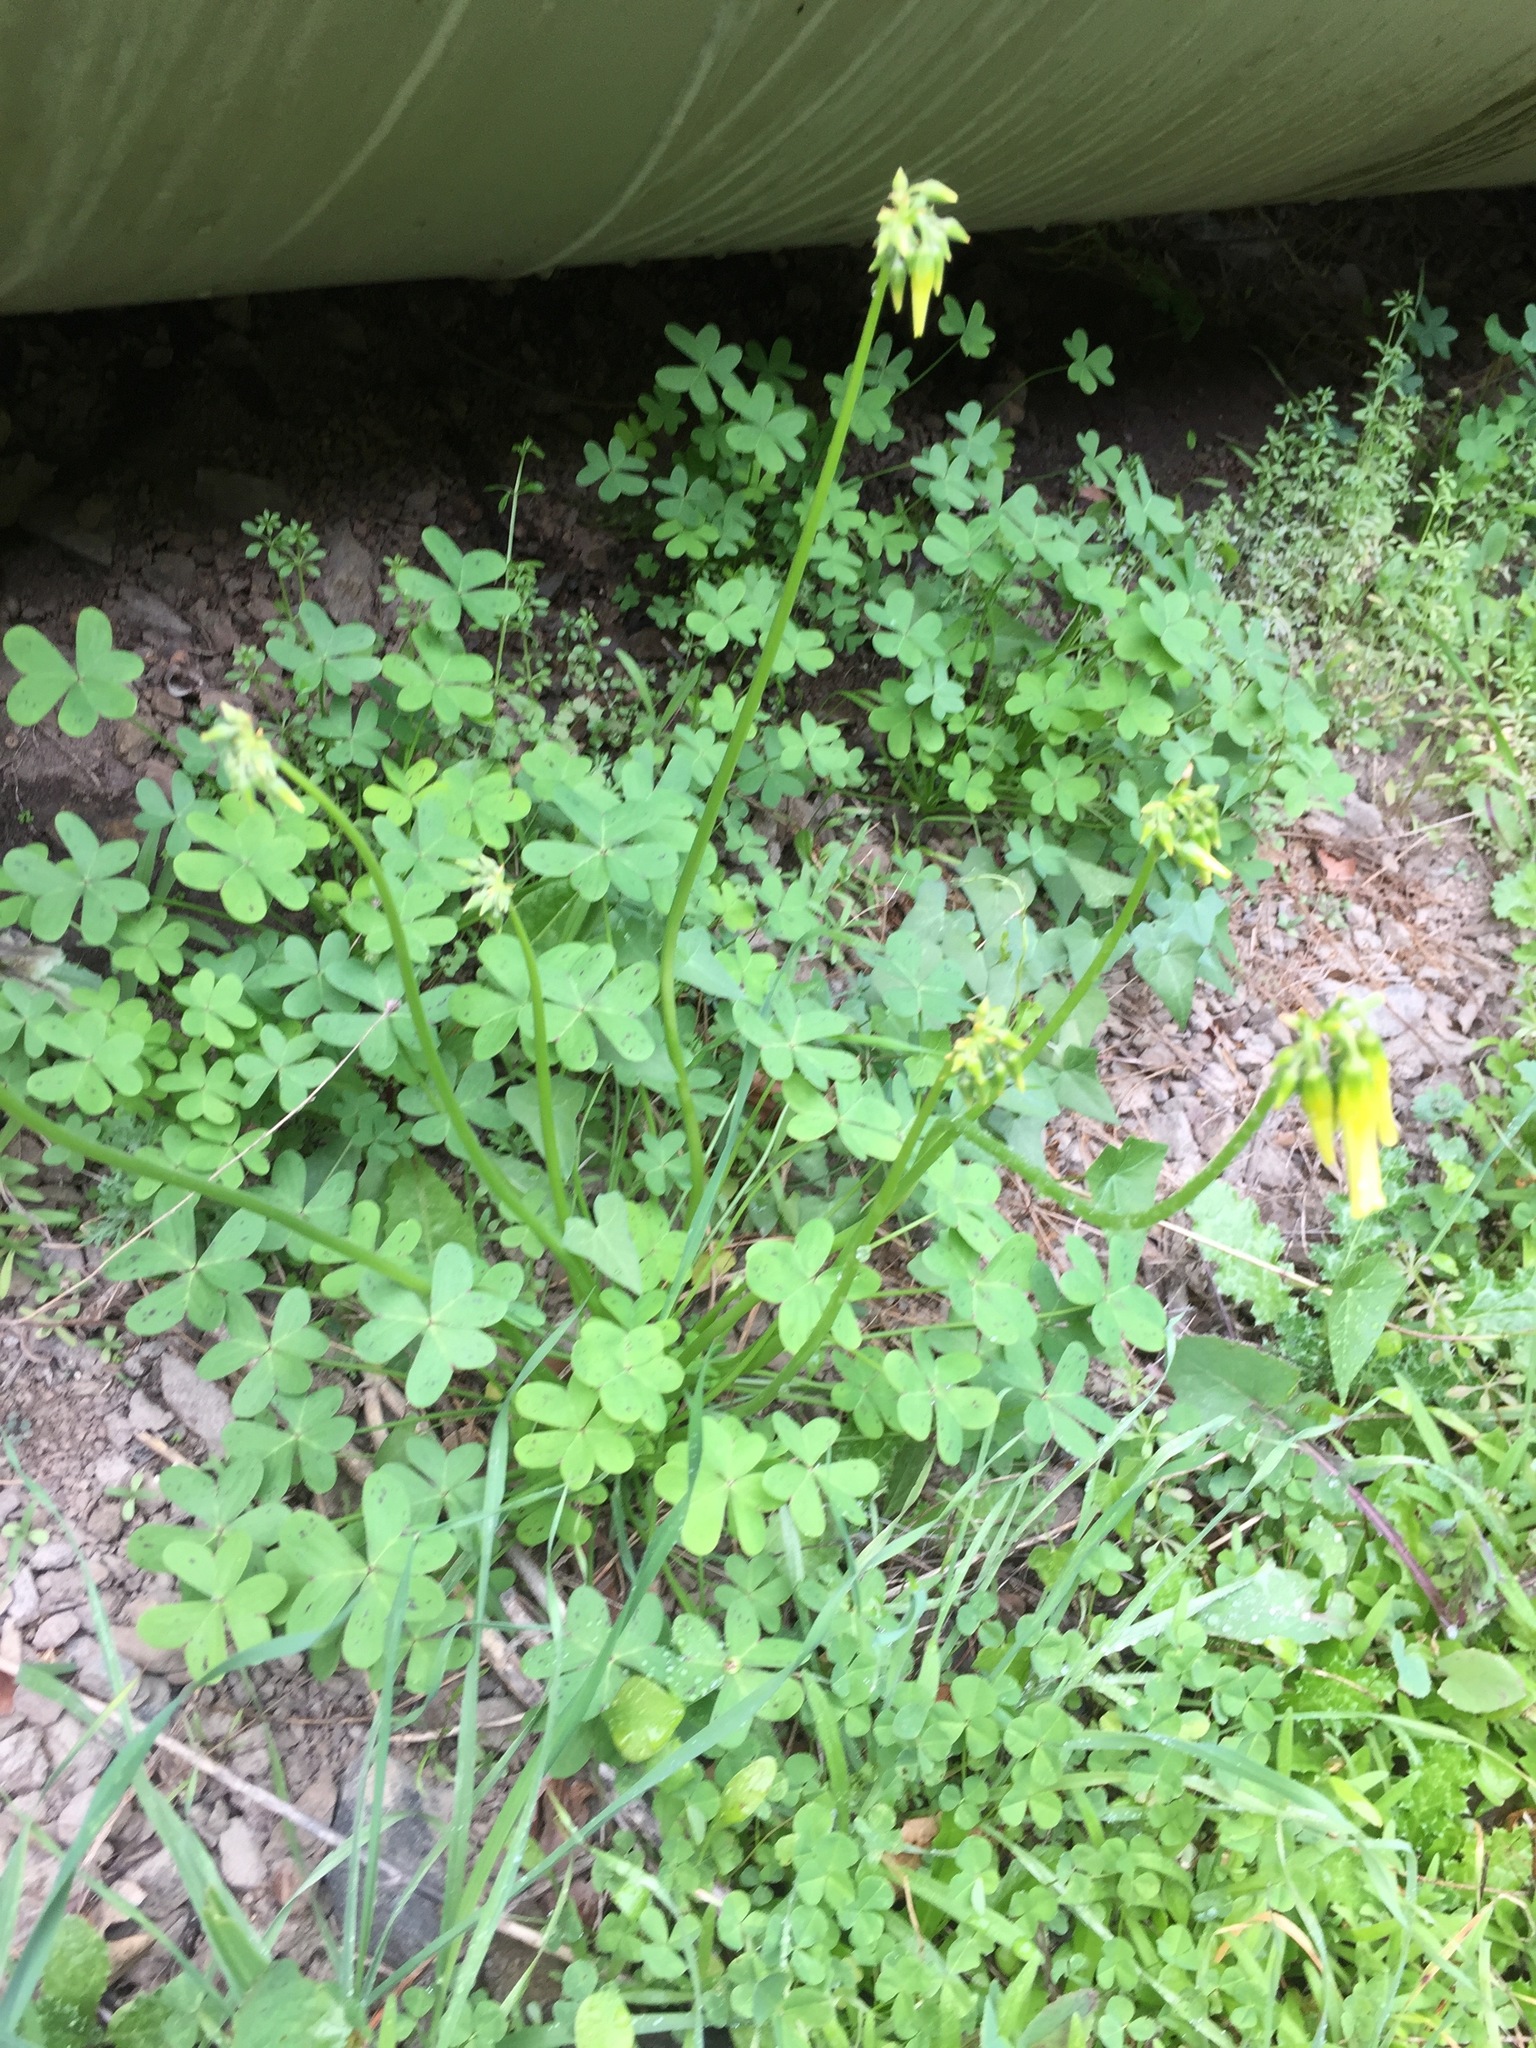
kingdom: Plantae
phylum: Tracheophyta
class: Magnoliopsida
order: Oxalidales
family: Oxalidaceae
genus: Oxalis
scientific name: Oxalis pes-caprae
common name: Bermuda-buttercup
